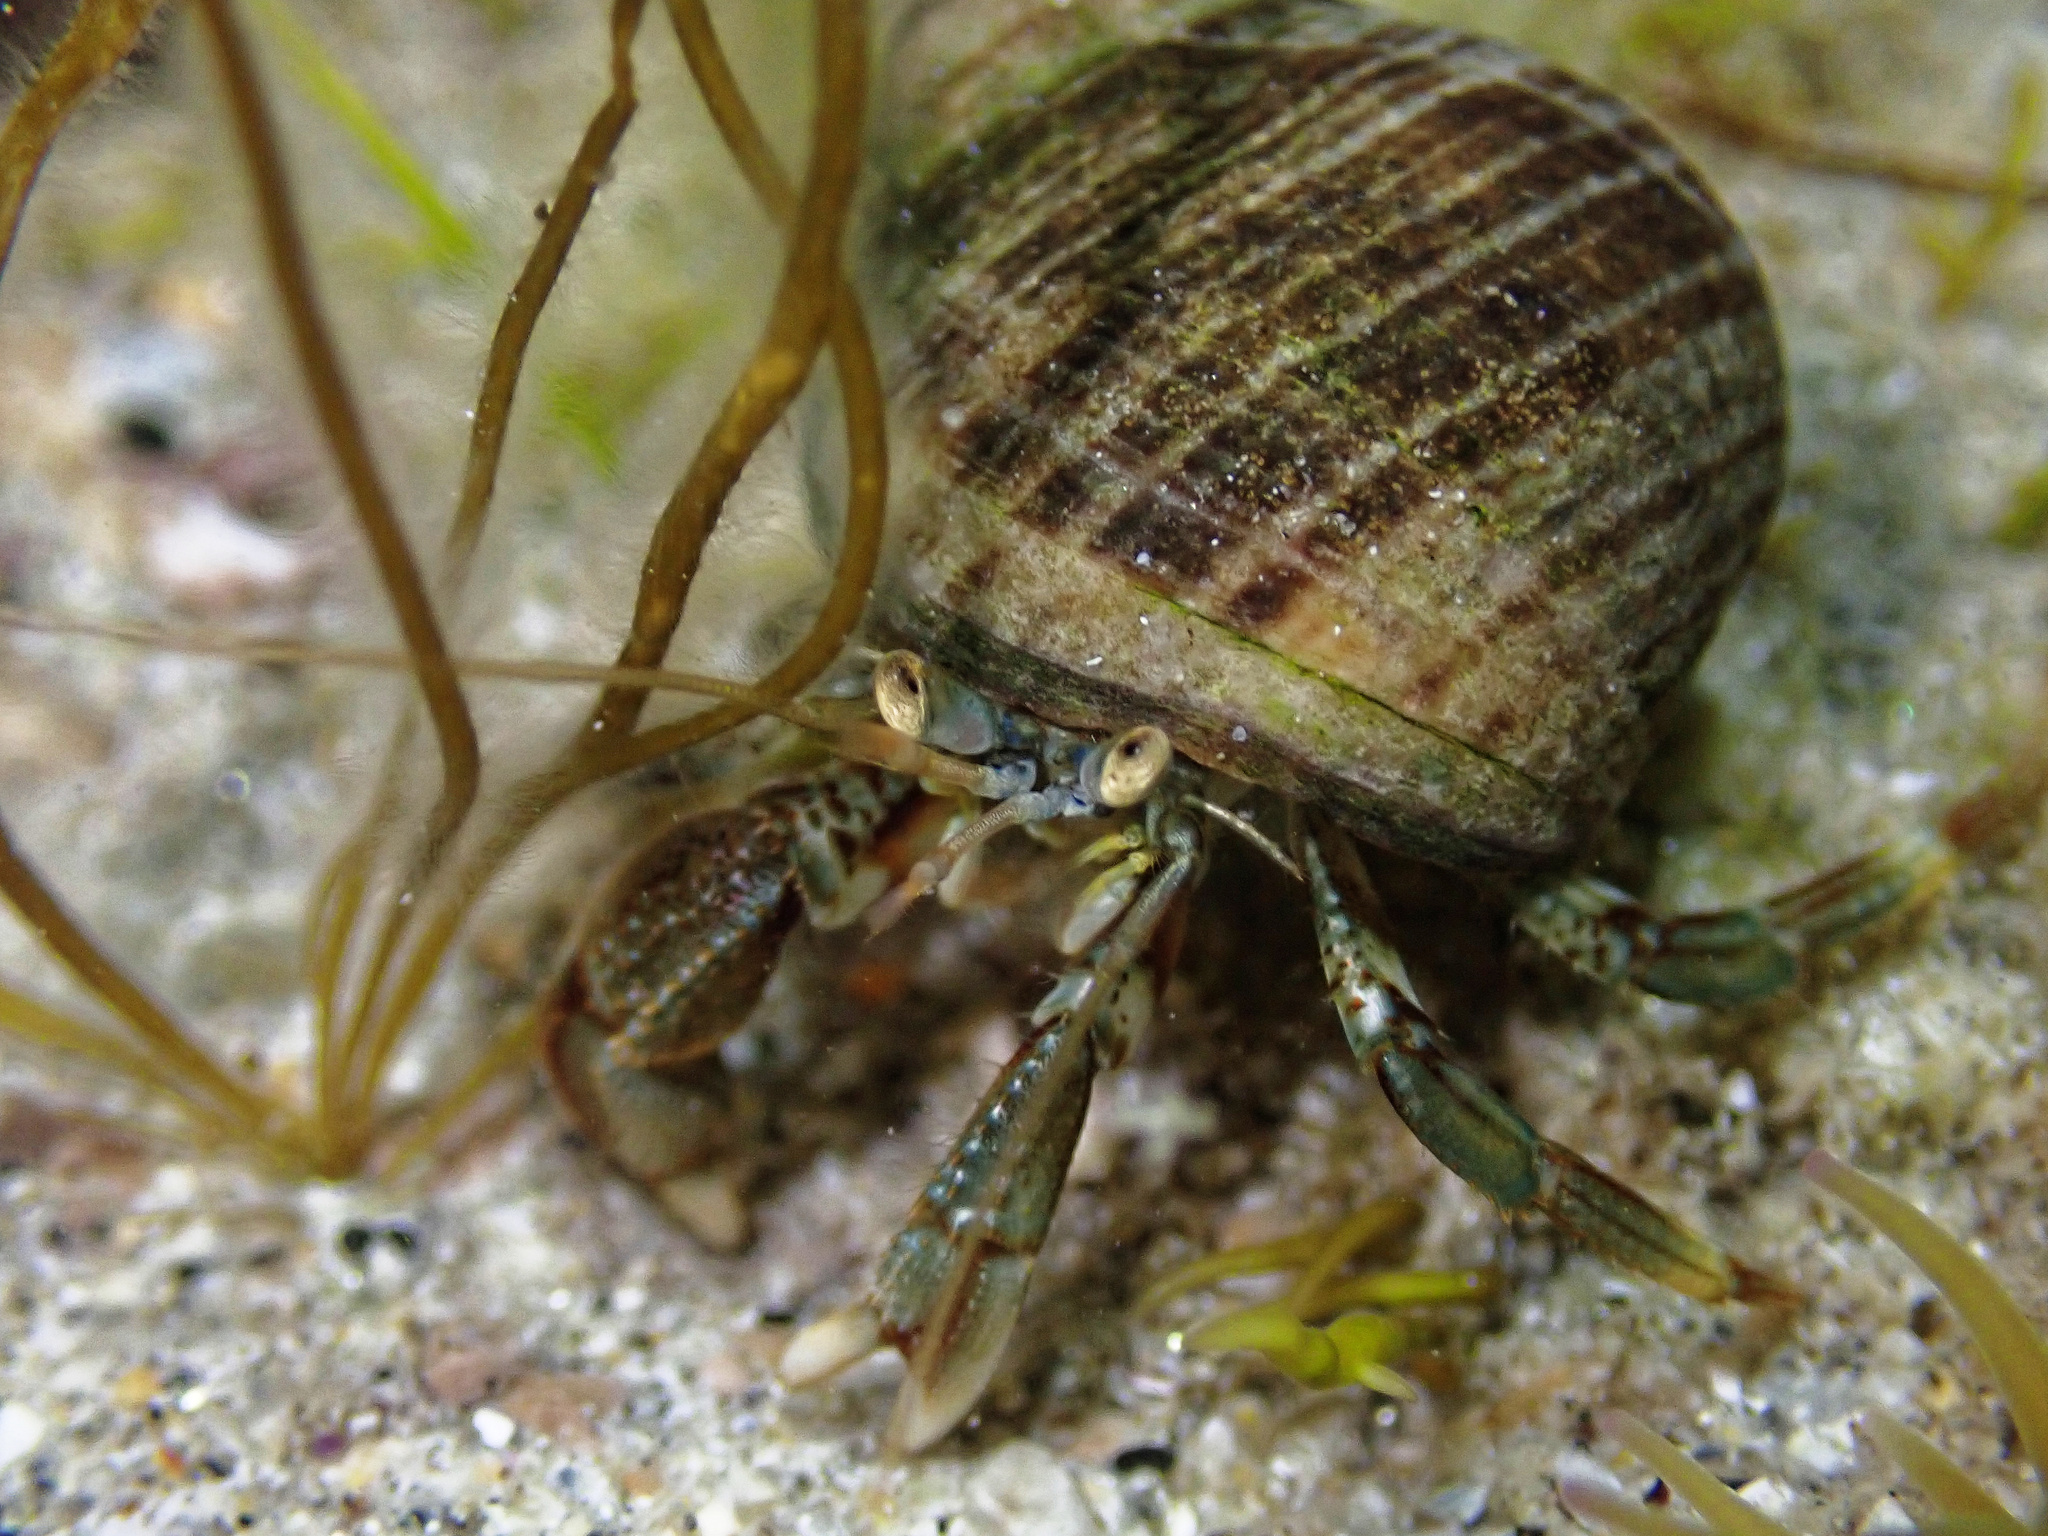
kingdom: Animalia
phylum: Arthropoda
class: Malacostraca
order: Decapoda
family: Paguridae
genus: Pagurus
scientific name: Pagurus bernhardus
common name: Hermit crab
